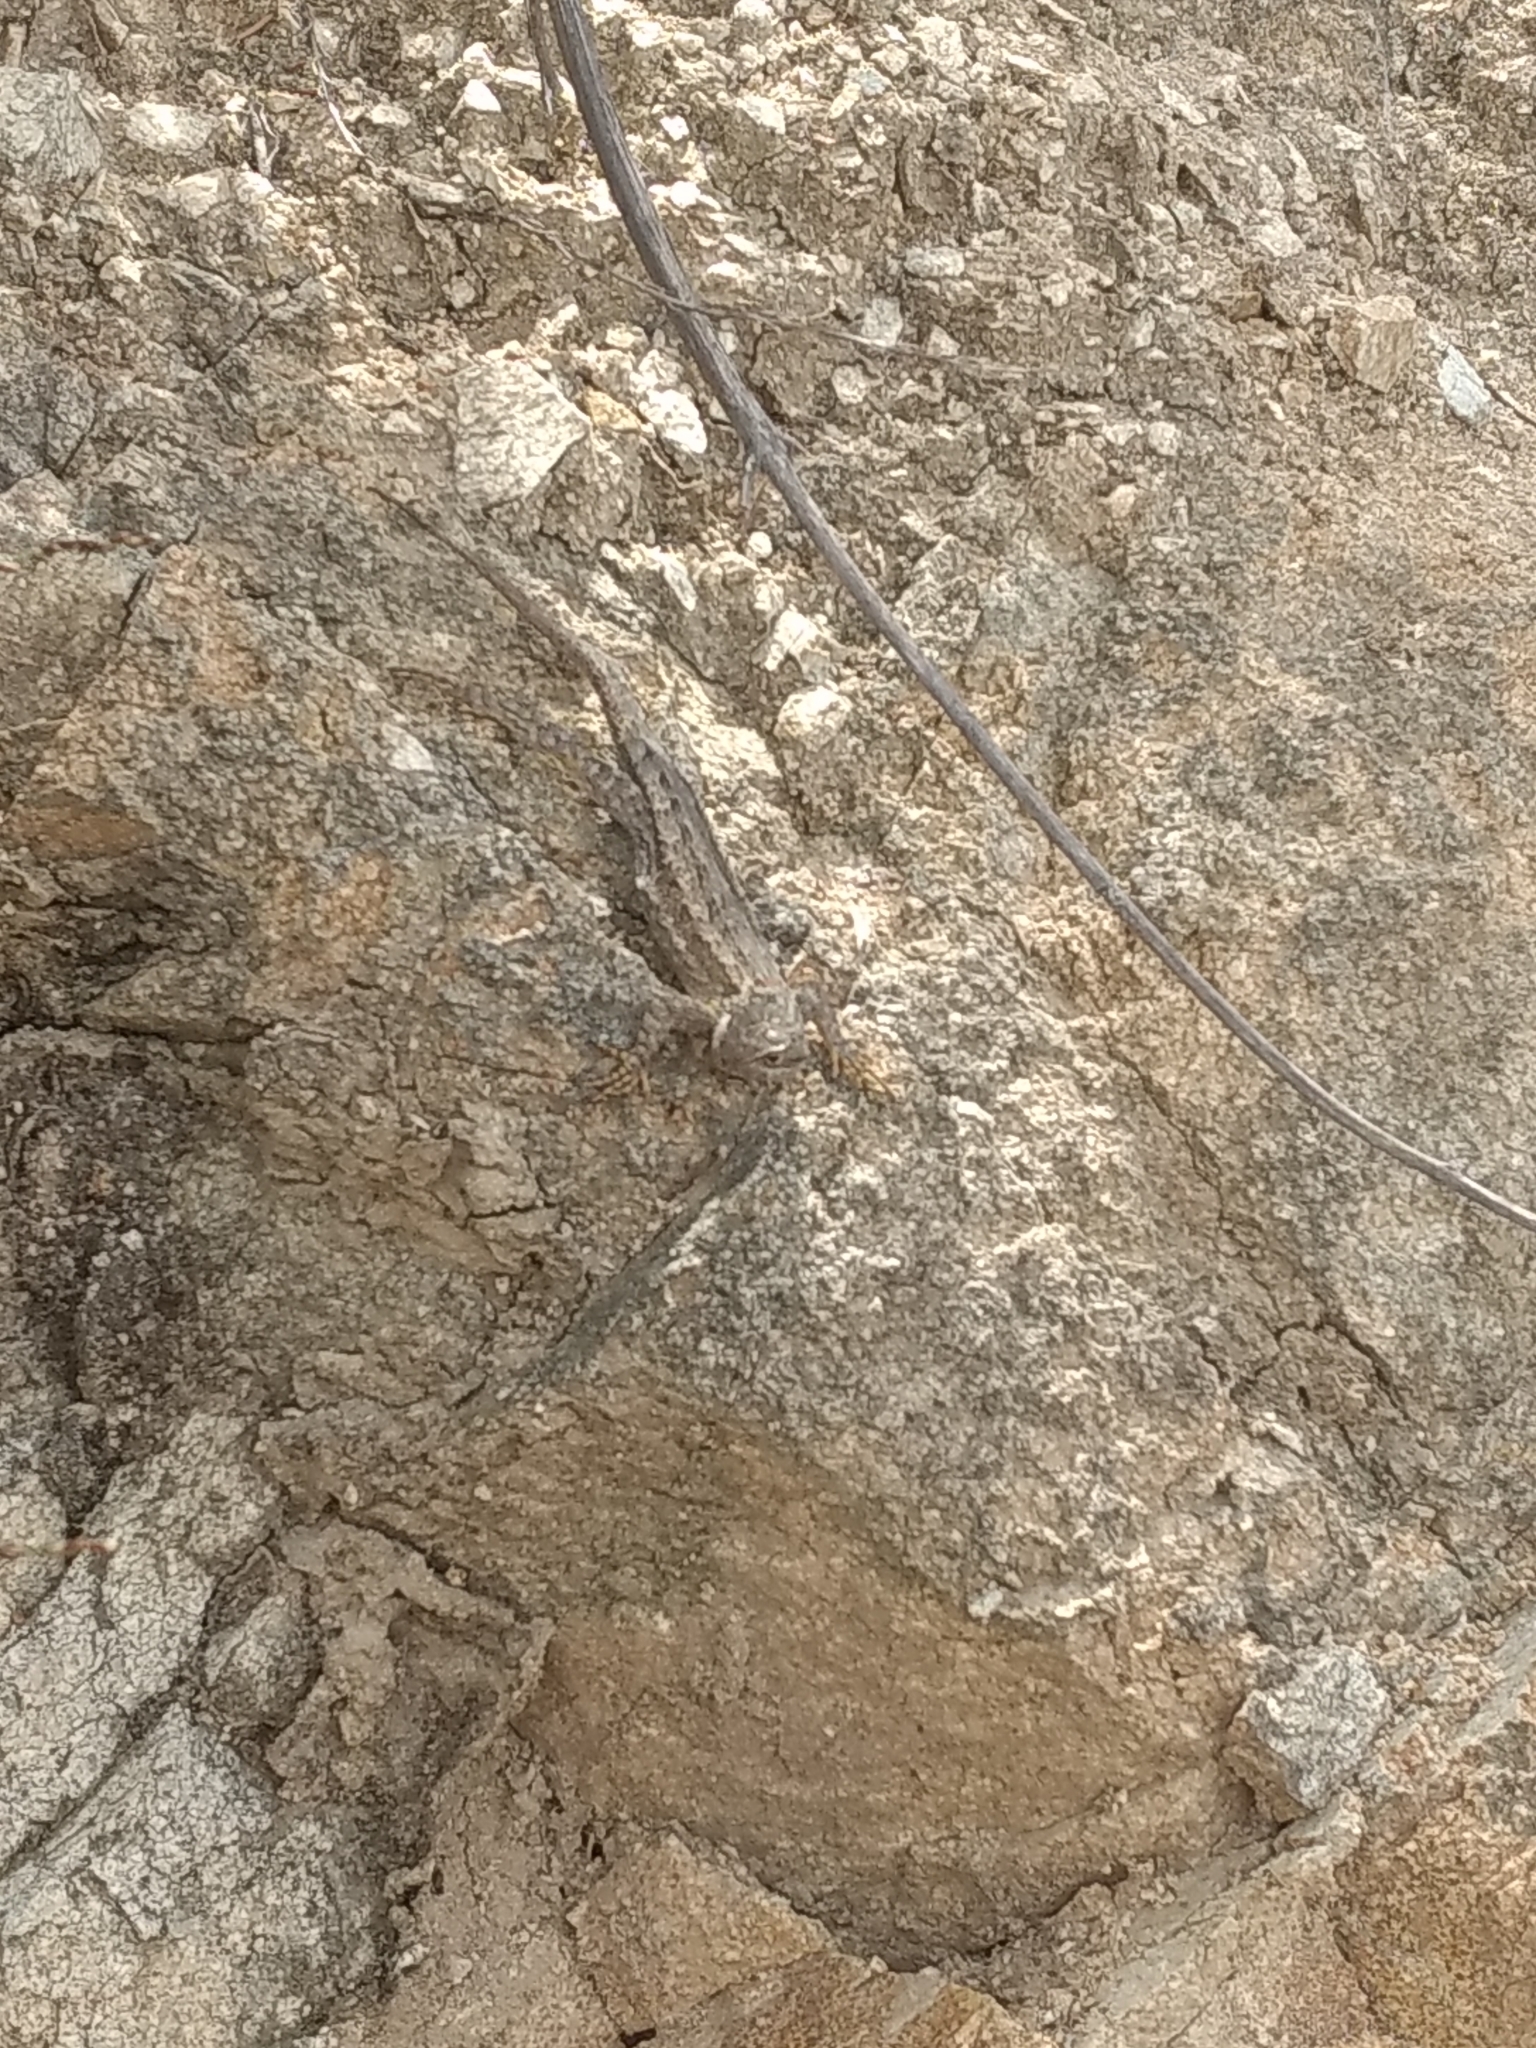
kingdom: Animalia
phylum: Chordata
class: Squamata
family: Phrynosomatidae
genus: Sceloporus
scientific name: Sceloporus occidentalis
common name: Western fence lizard
